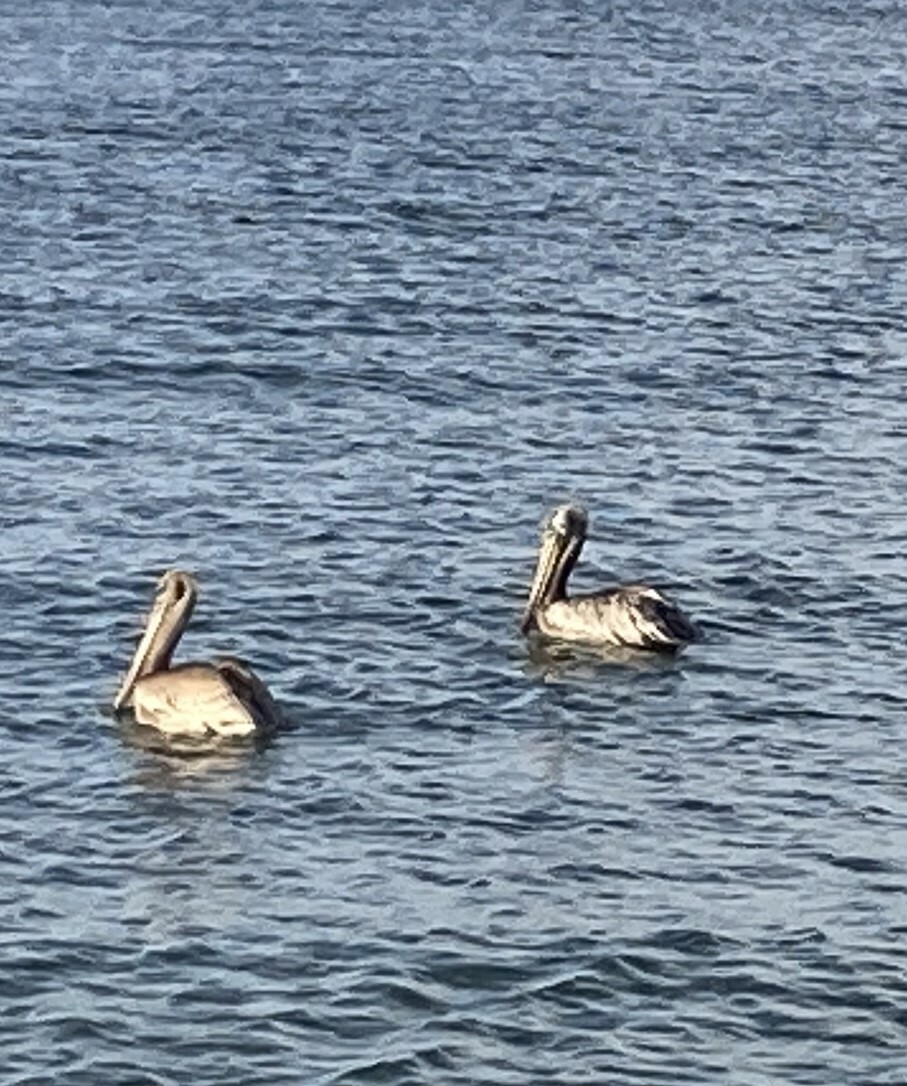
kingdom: Animalia
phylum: Chordata
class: Aves
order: Pelecaniformes
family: Pelecanidae
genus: Pelecanus
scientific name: Pelecanus occidentalis
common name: Brown pelican
